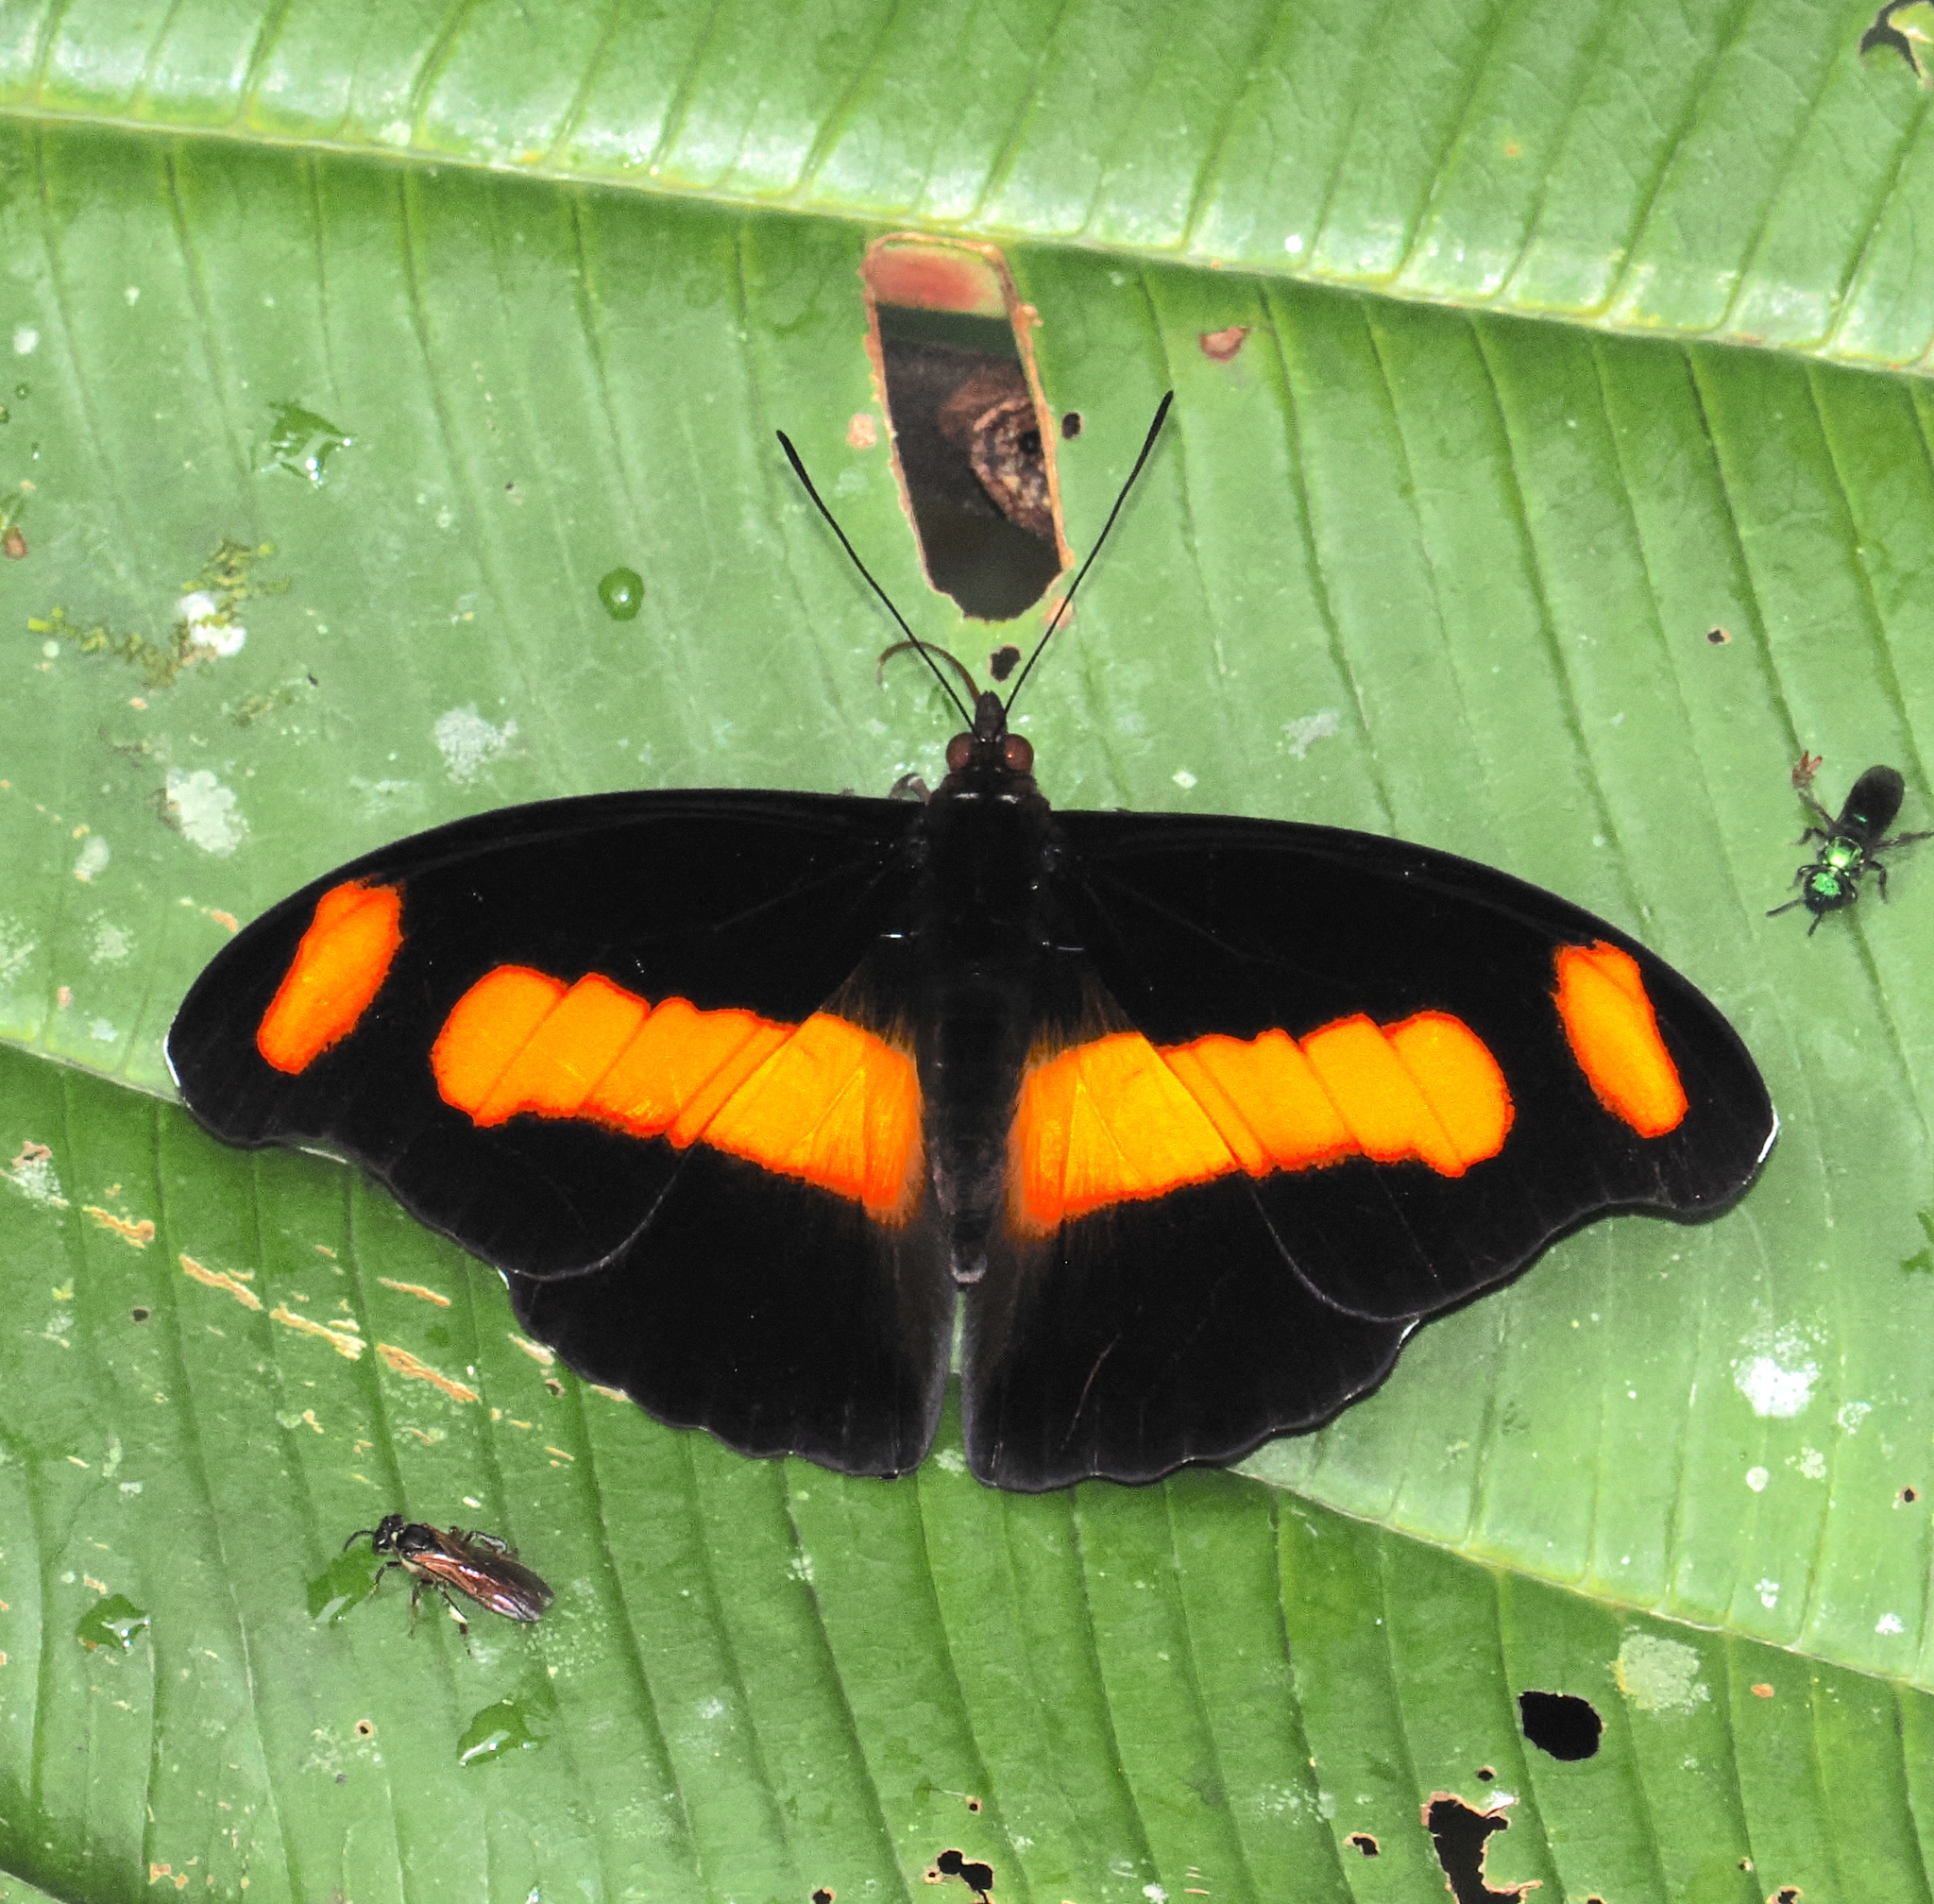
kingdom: Animalia
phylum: Arthropoda
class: Insecta
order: Lepidoptera
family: Nymphalidae
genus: Catonephele
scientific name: Catonephele chromis
